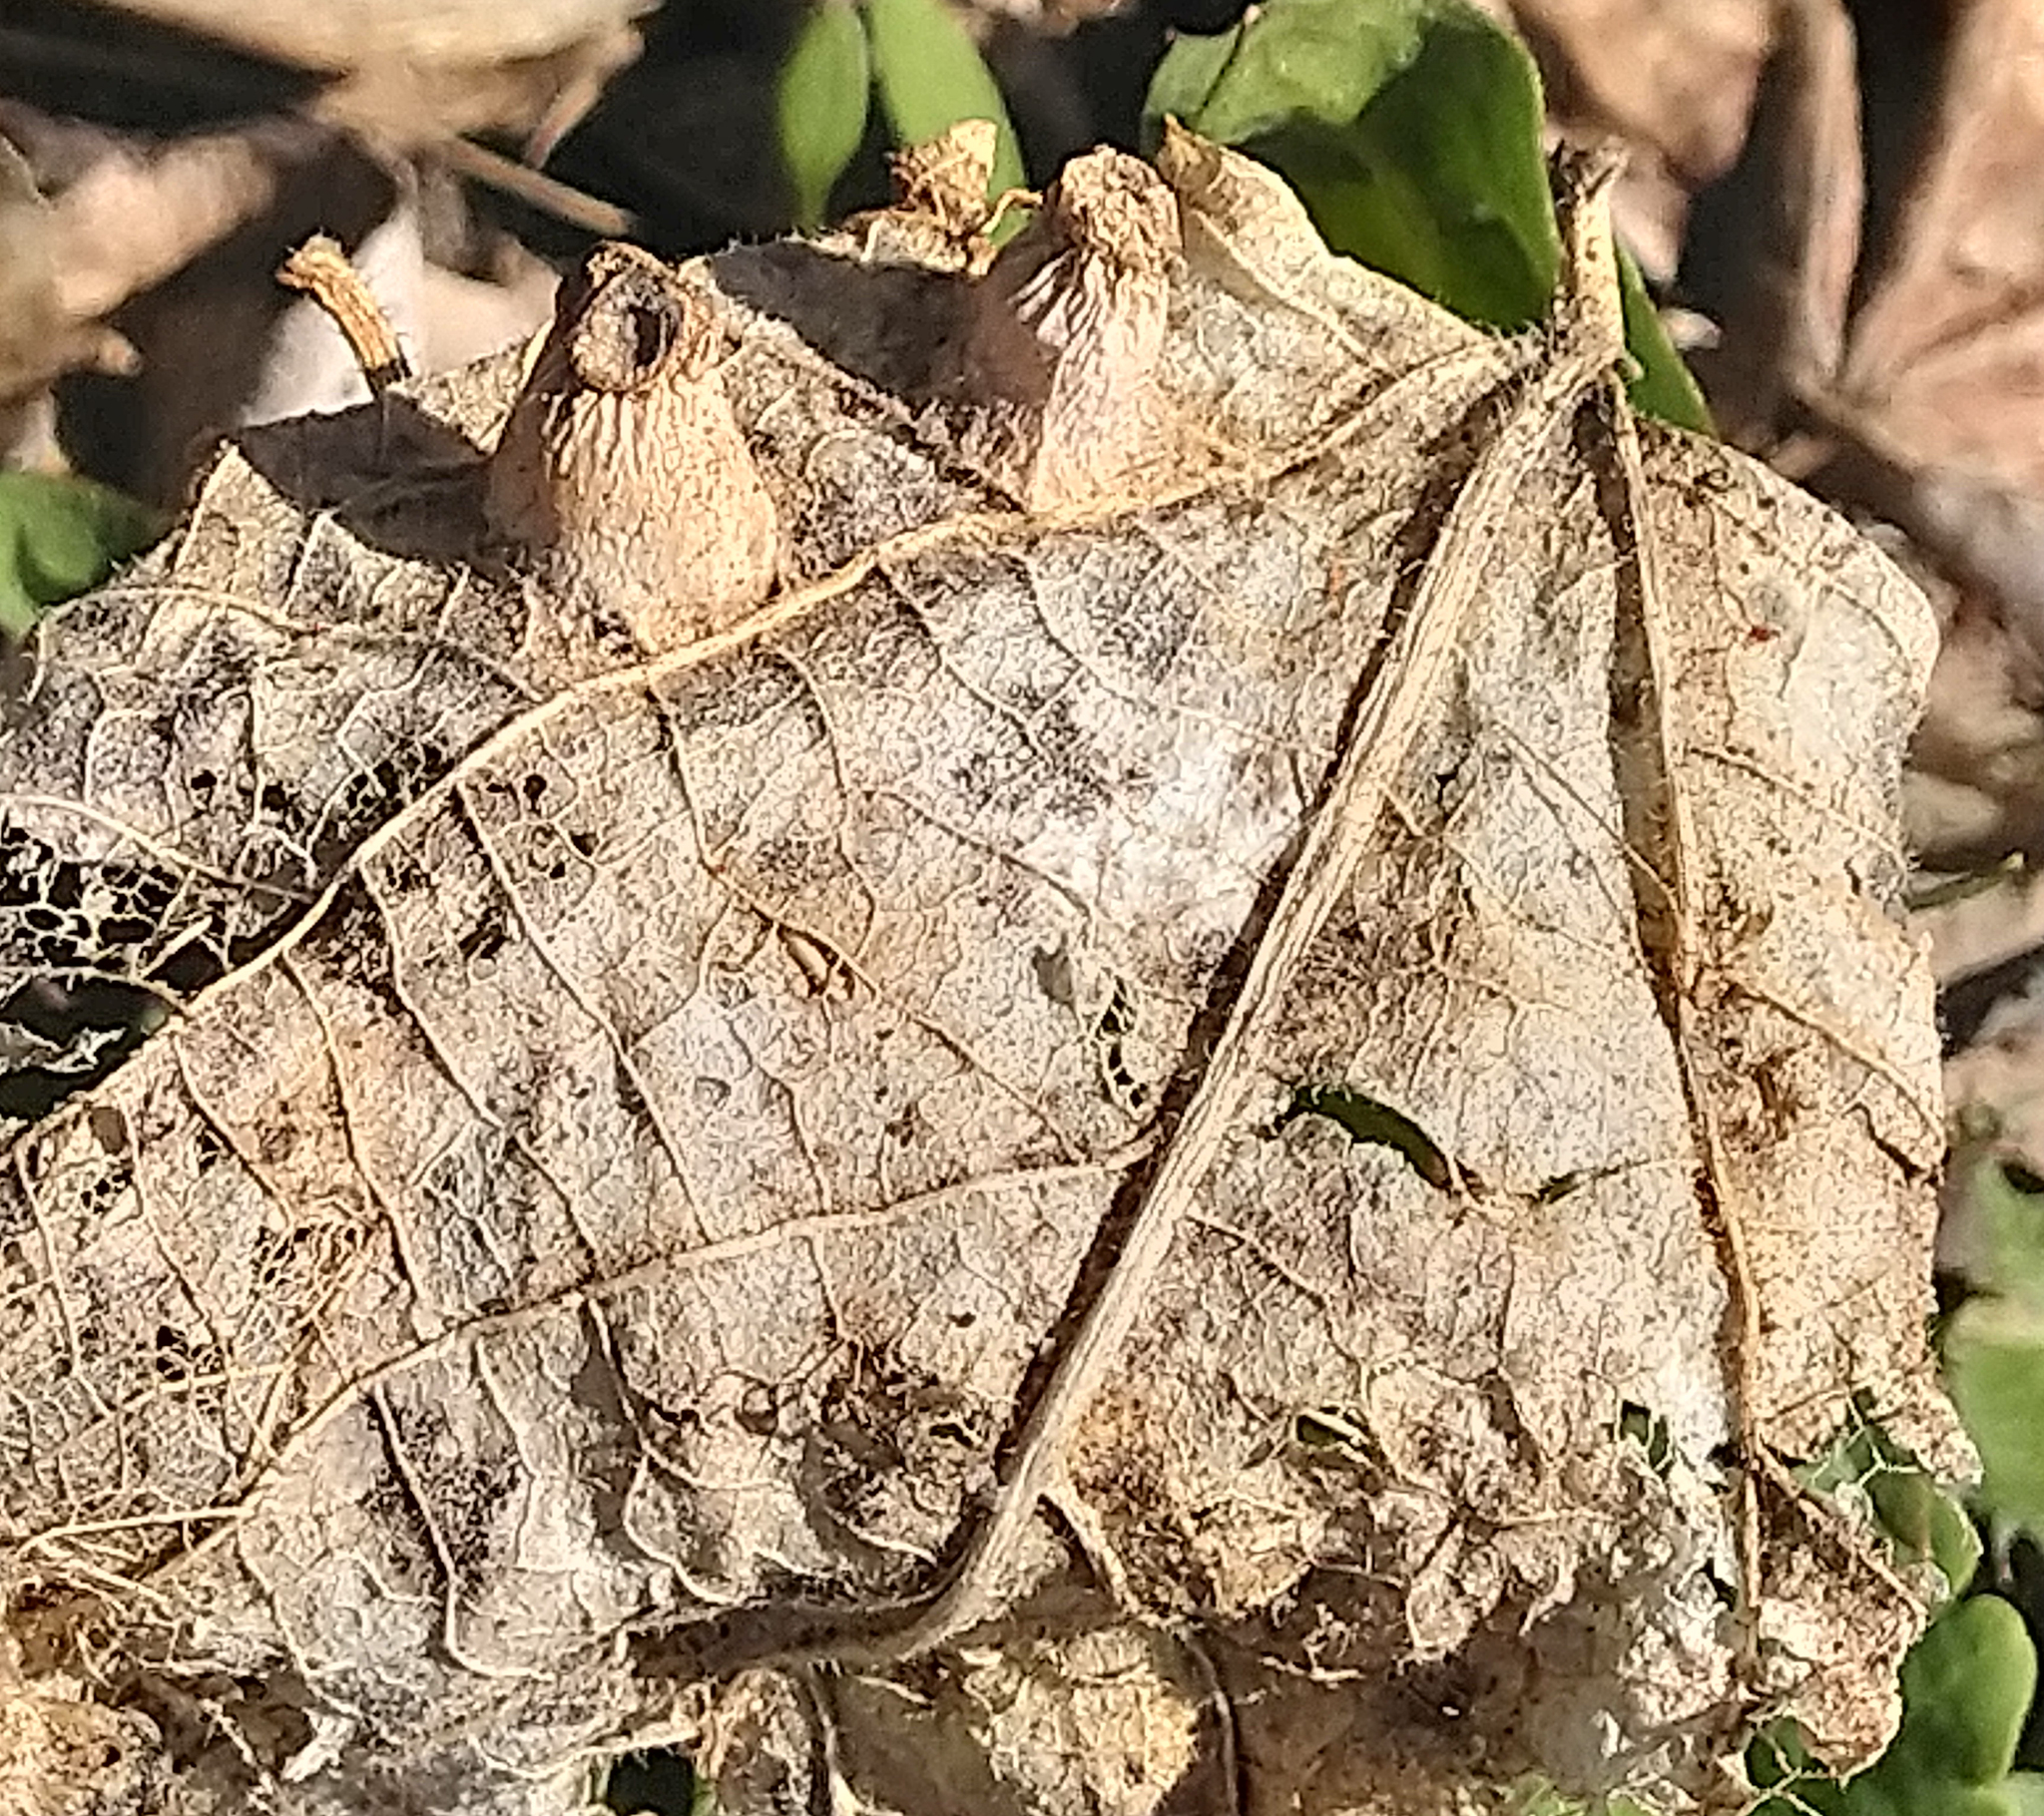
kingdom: Animalia
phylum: Arthropoda
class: Insecta
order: Hemiptera
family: Aphalaridae
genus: Pachypsylla
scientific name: Pachypsylla celtidismamma
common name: Hackberry nipplegall psyllid
